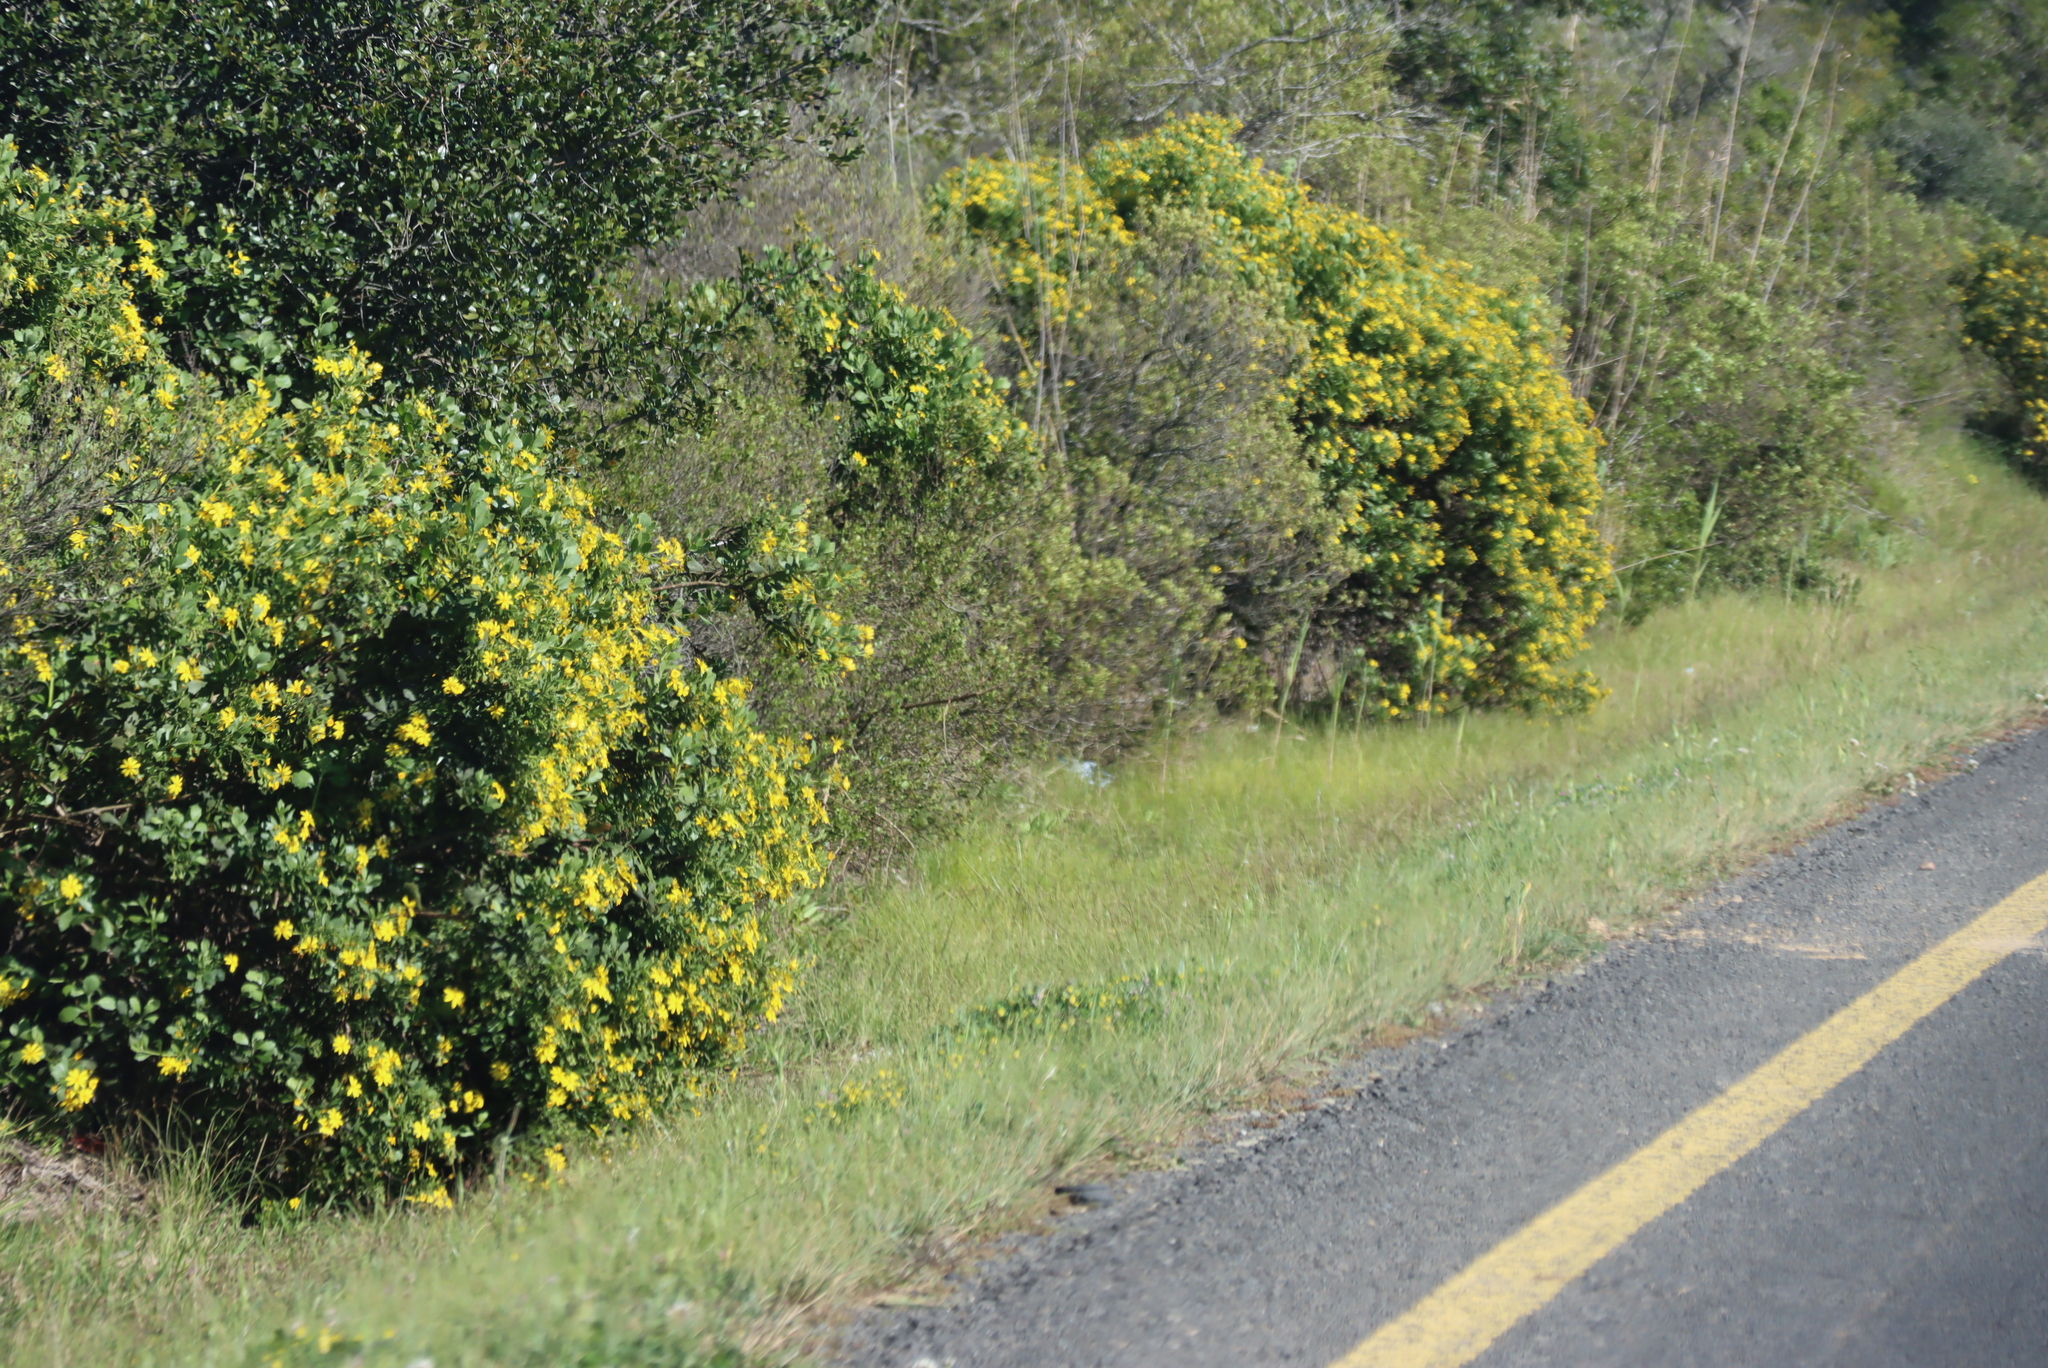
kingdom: Plantae
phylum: Tracheophyta
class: Magnoliopsida
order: Asterales
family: Asteraceae
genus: Osteospermum
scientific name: Osteospermum moniliferum
